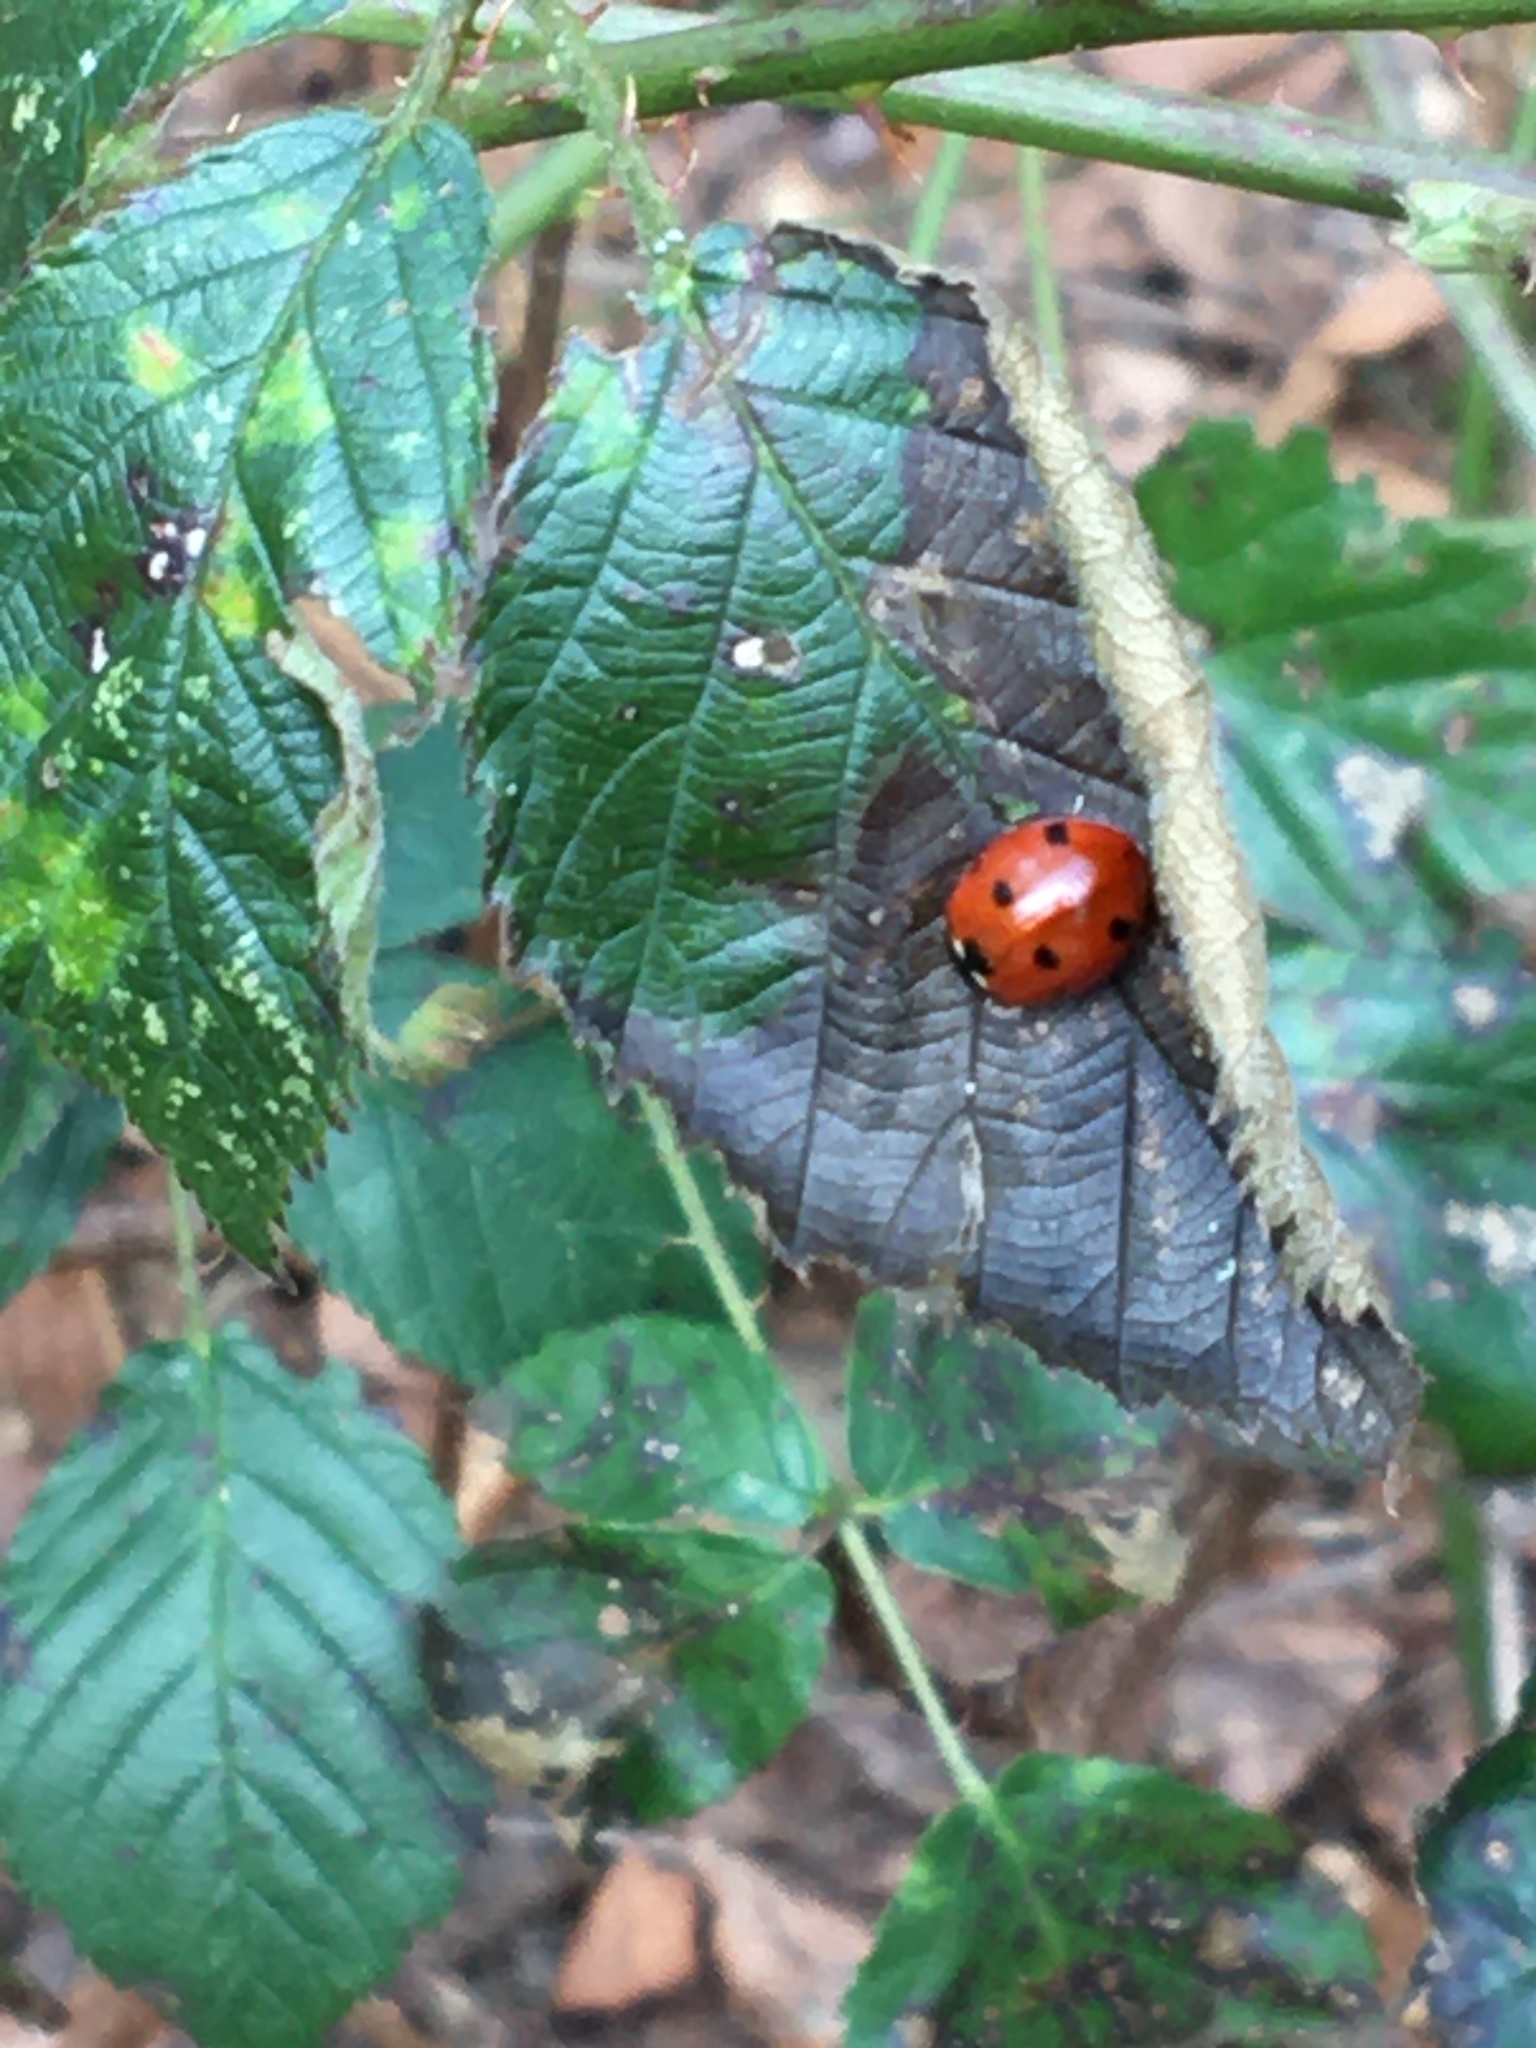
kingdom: Animalia
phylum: Arthropoda
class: Insecta
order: Coleoptera
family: Coccinellidae
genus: Coccinella
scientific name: Coccinella septempunctata
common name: Sevenspotted lady beetle
